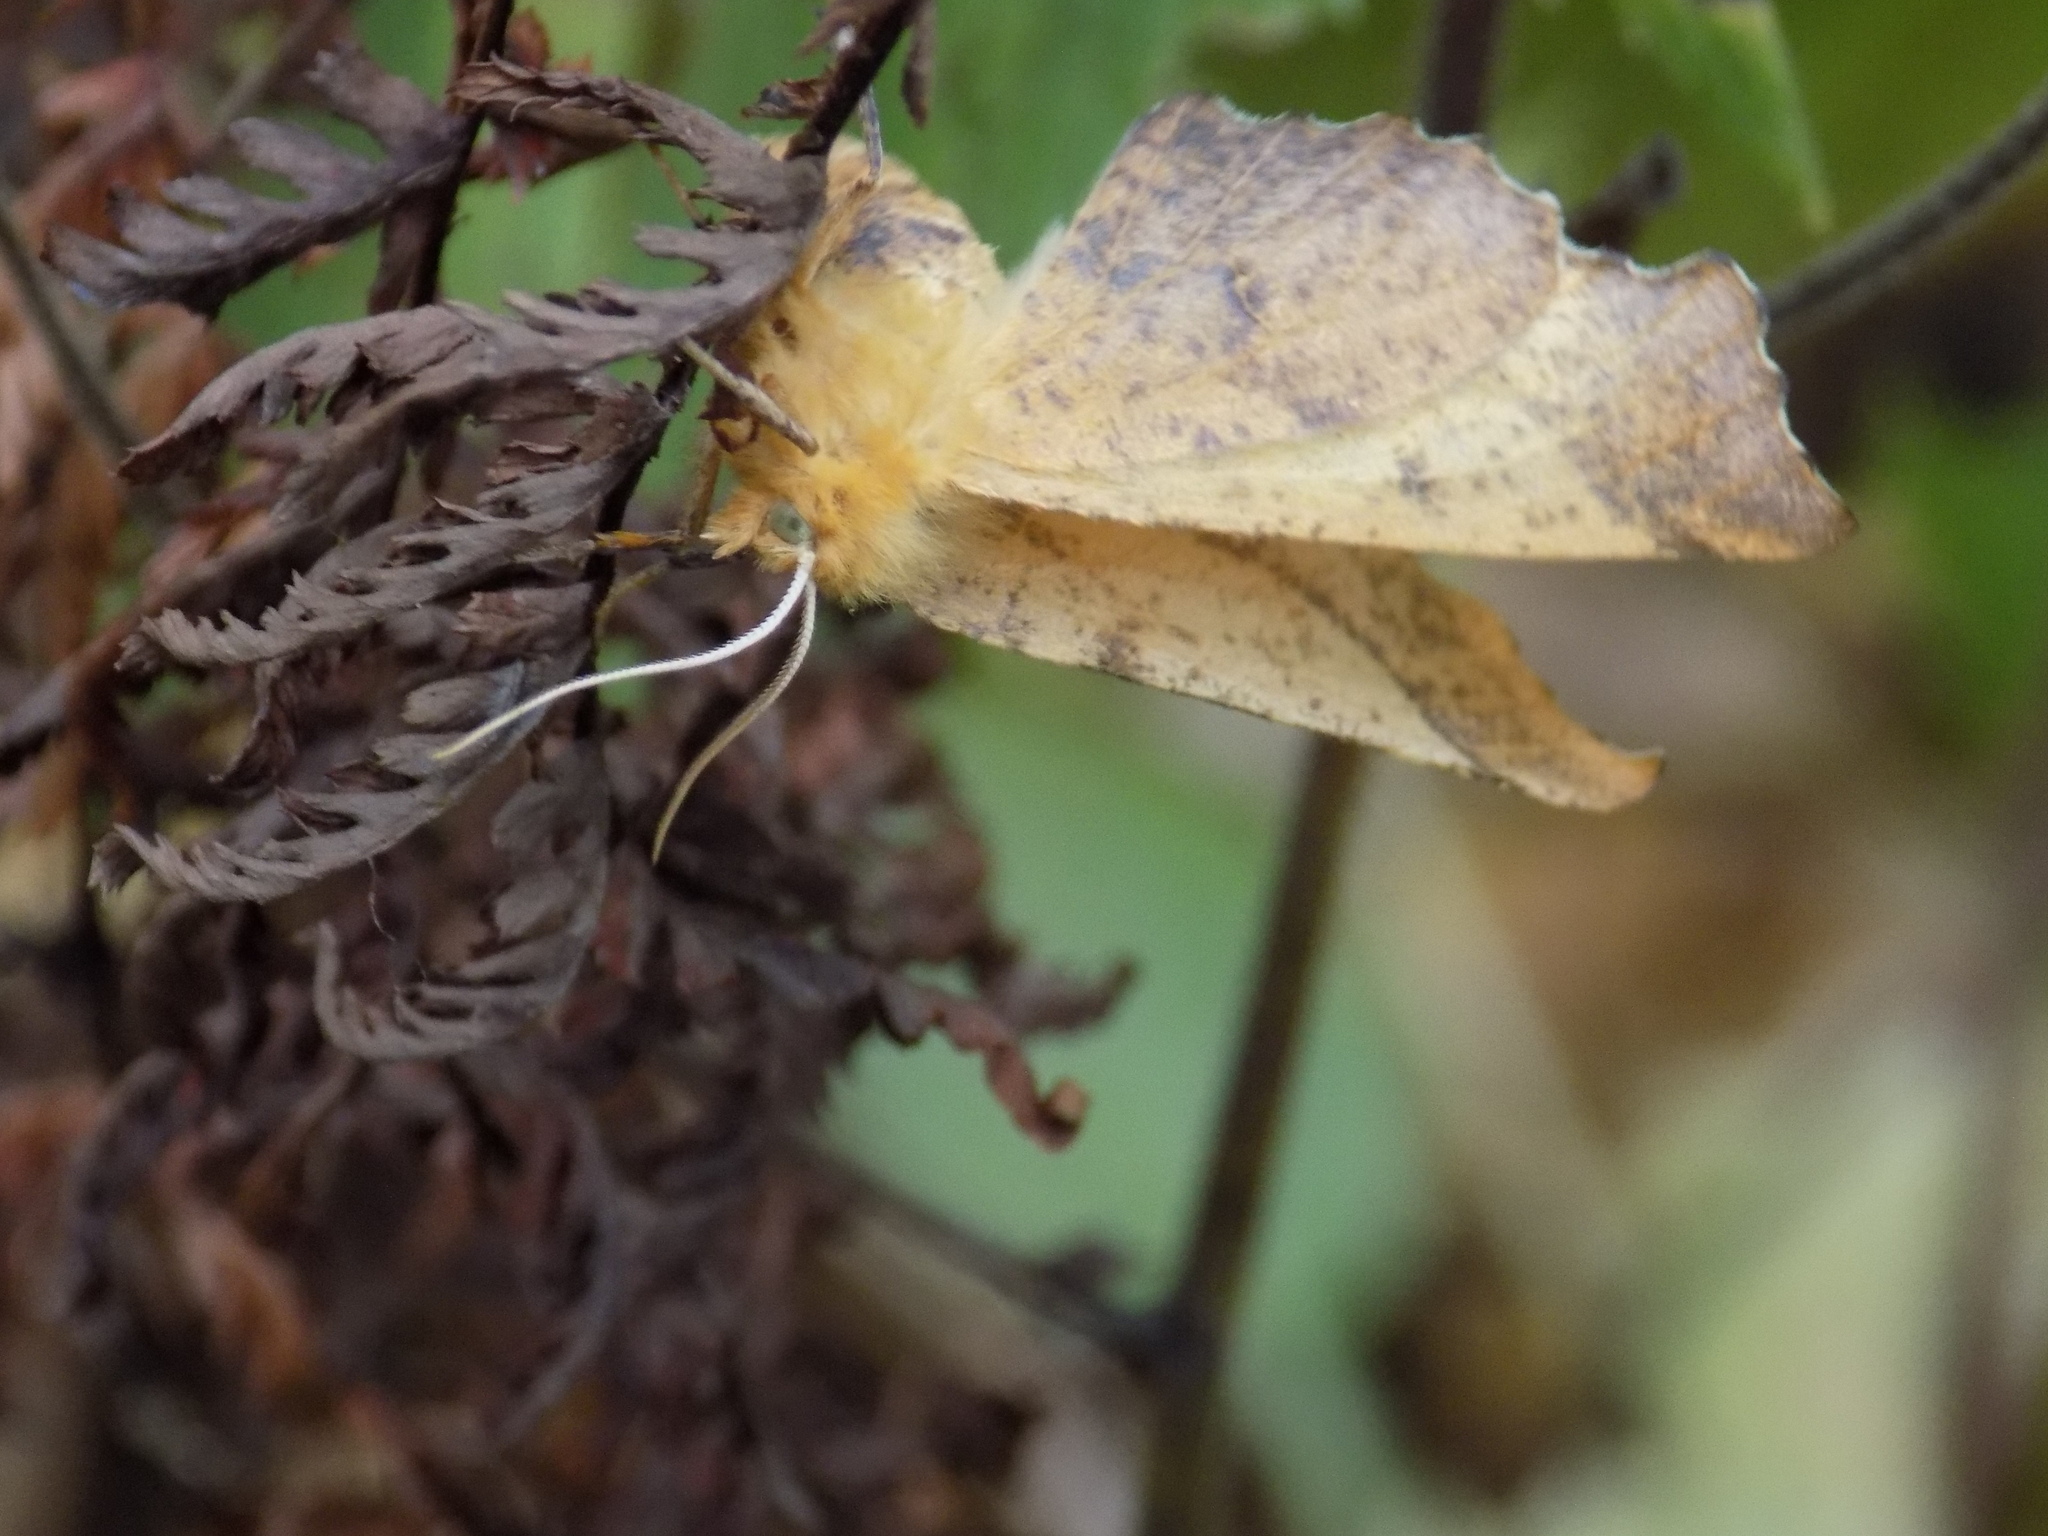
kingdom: Animalia
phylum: Arthropoda
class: Insecta
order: Lepidoptera
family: Geometridae
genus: Ennomos
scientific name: Ennomos autumnaria
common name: Large thorn
